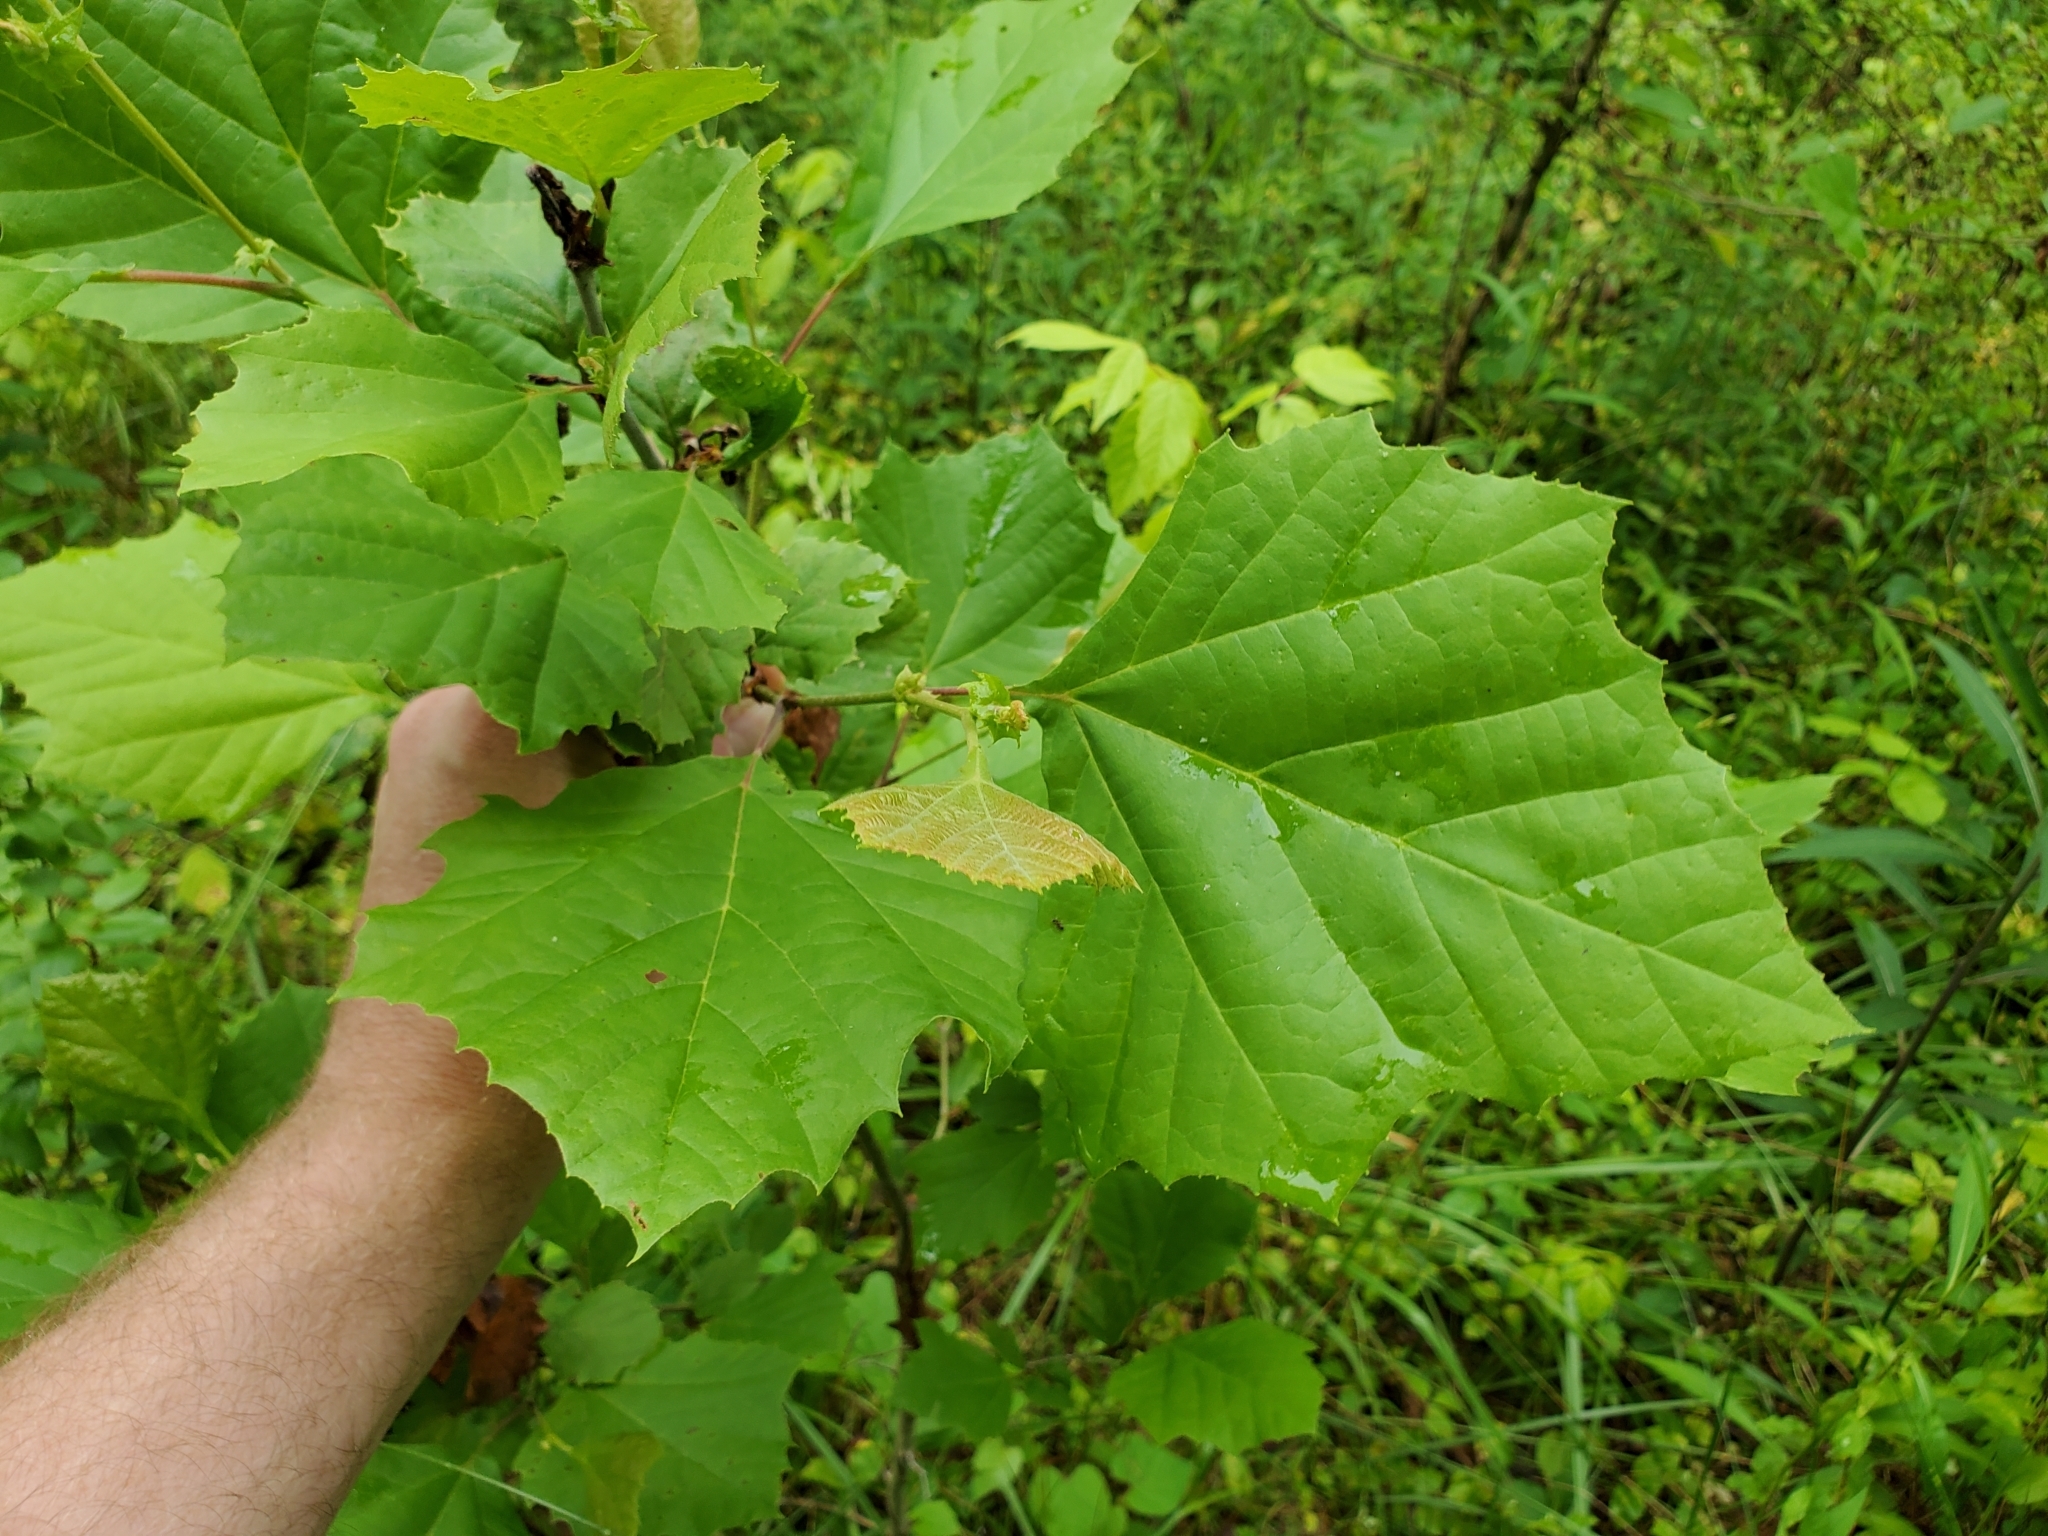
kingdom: Plantae
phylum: Tracheophyta
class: Magnoliopsida
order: Proteales
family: Platanaceae
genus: Platanus
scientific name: Platanus occidentalis
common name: American sycamore
